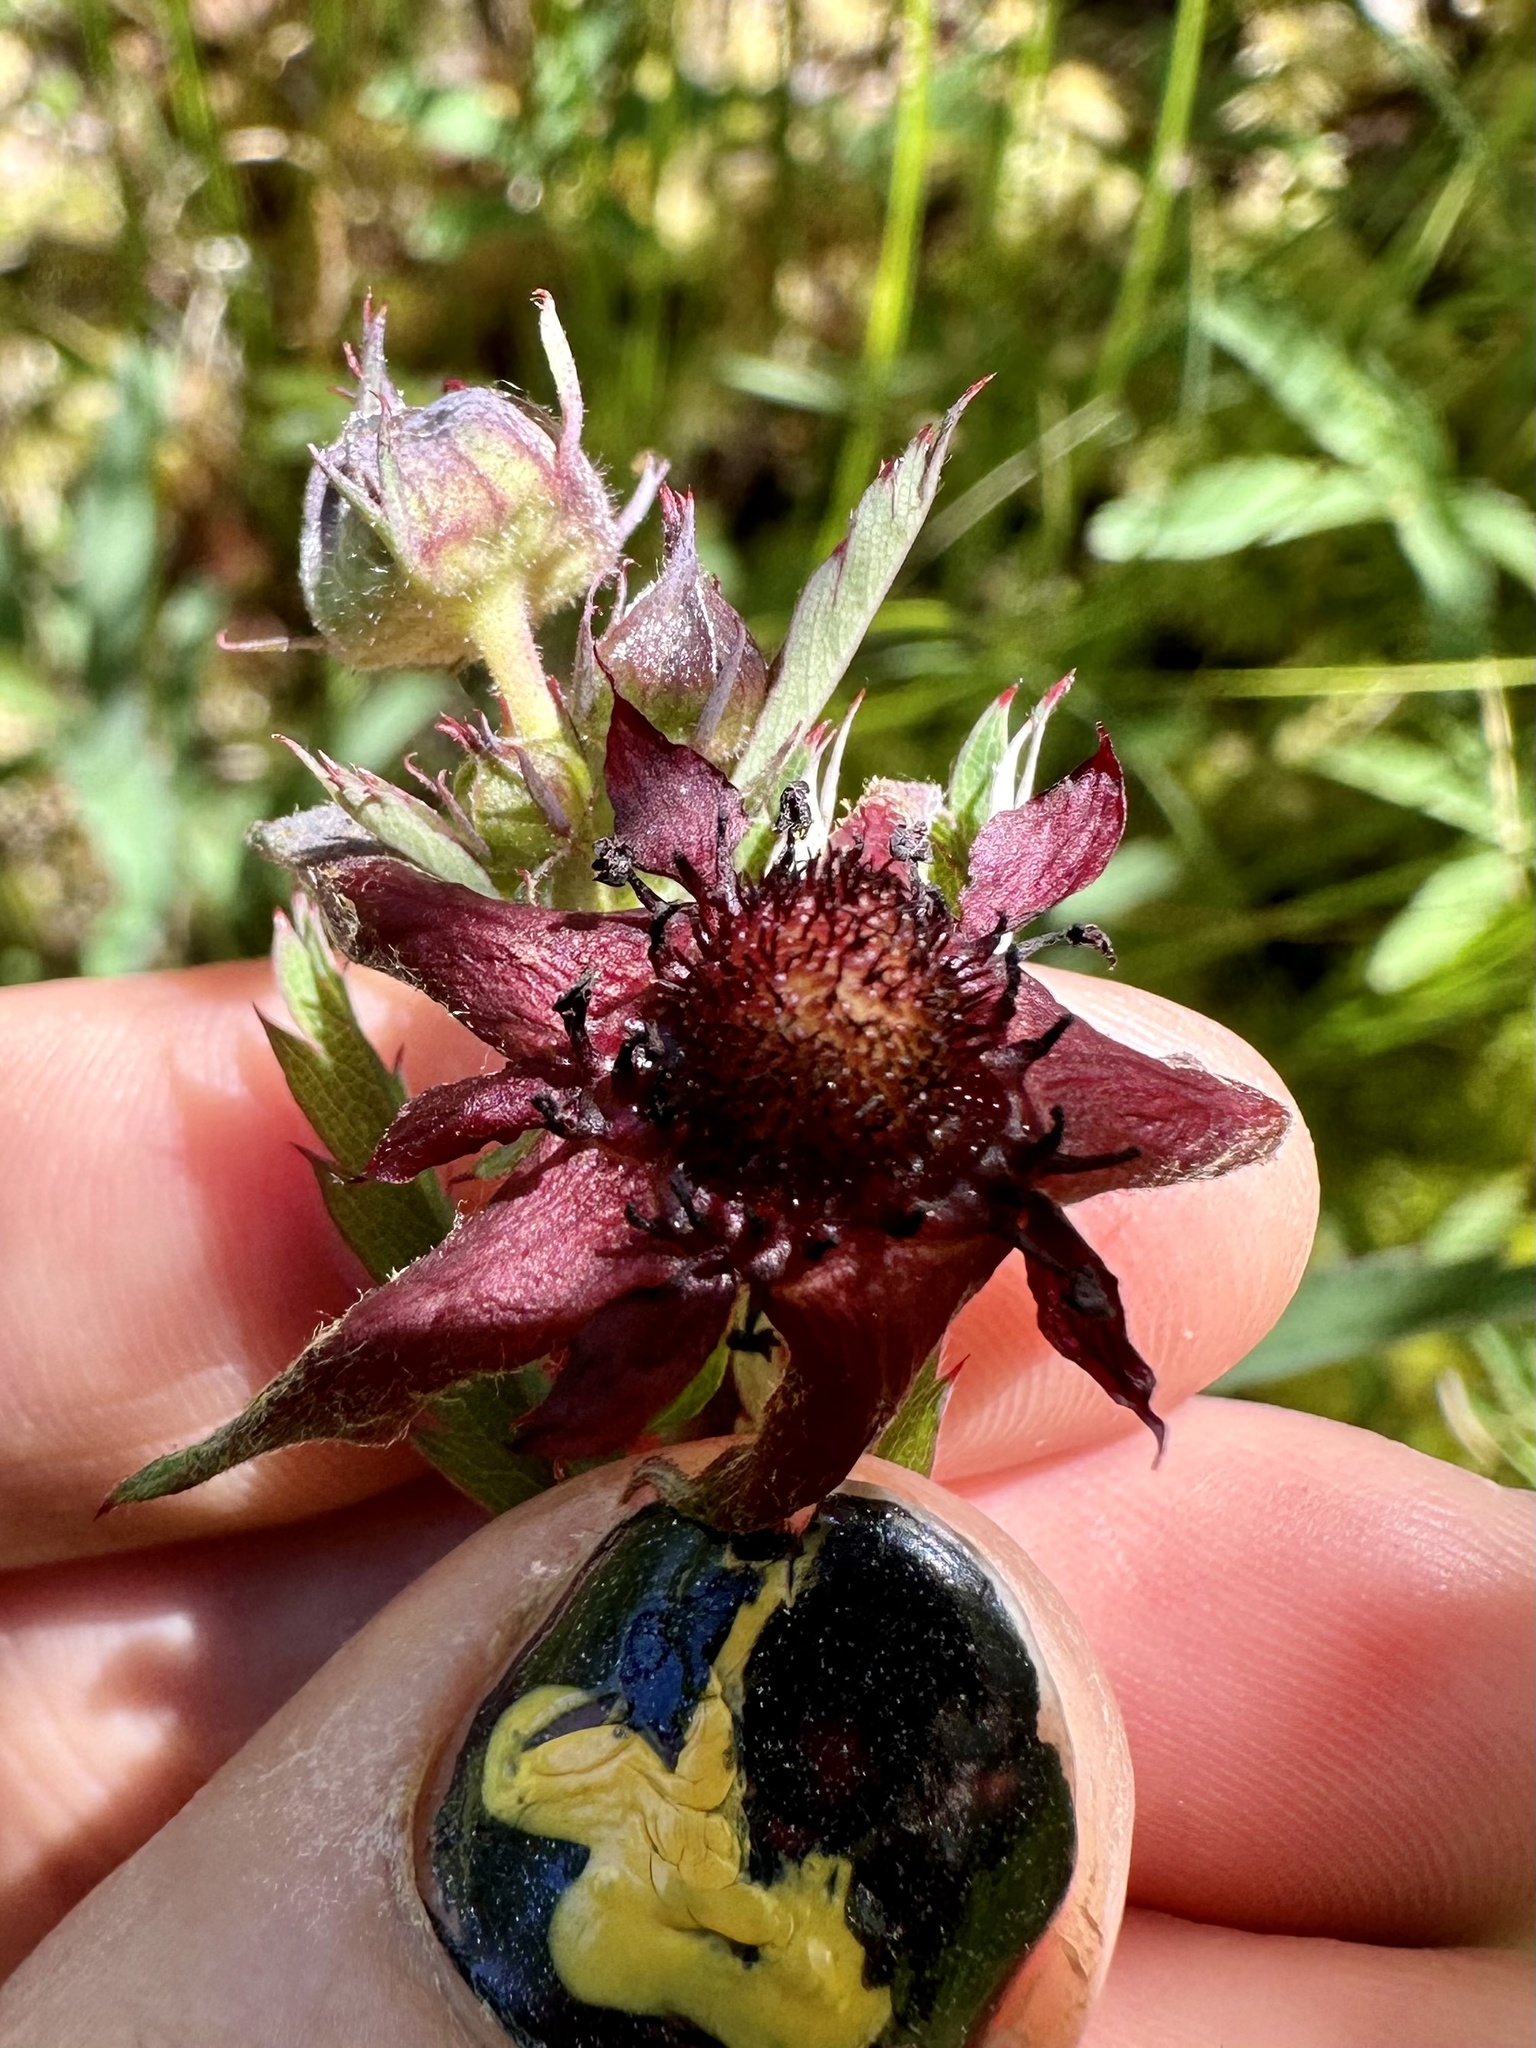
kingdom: Plantae
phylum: Tracheophyta
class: Magnoliopsida
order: Rosales
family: Rosaceae
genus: Comarum
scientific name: Comarum palustre
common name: Marsh cinquefoil
